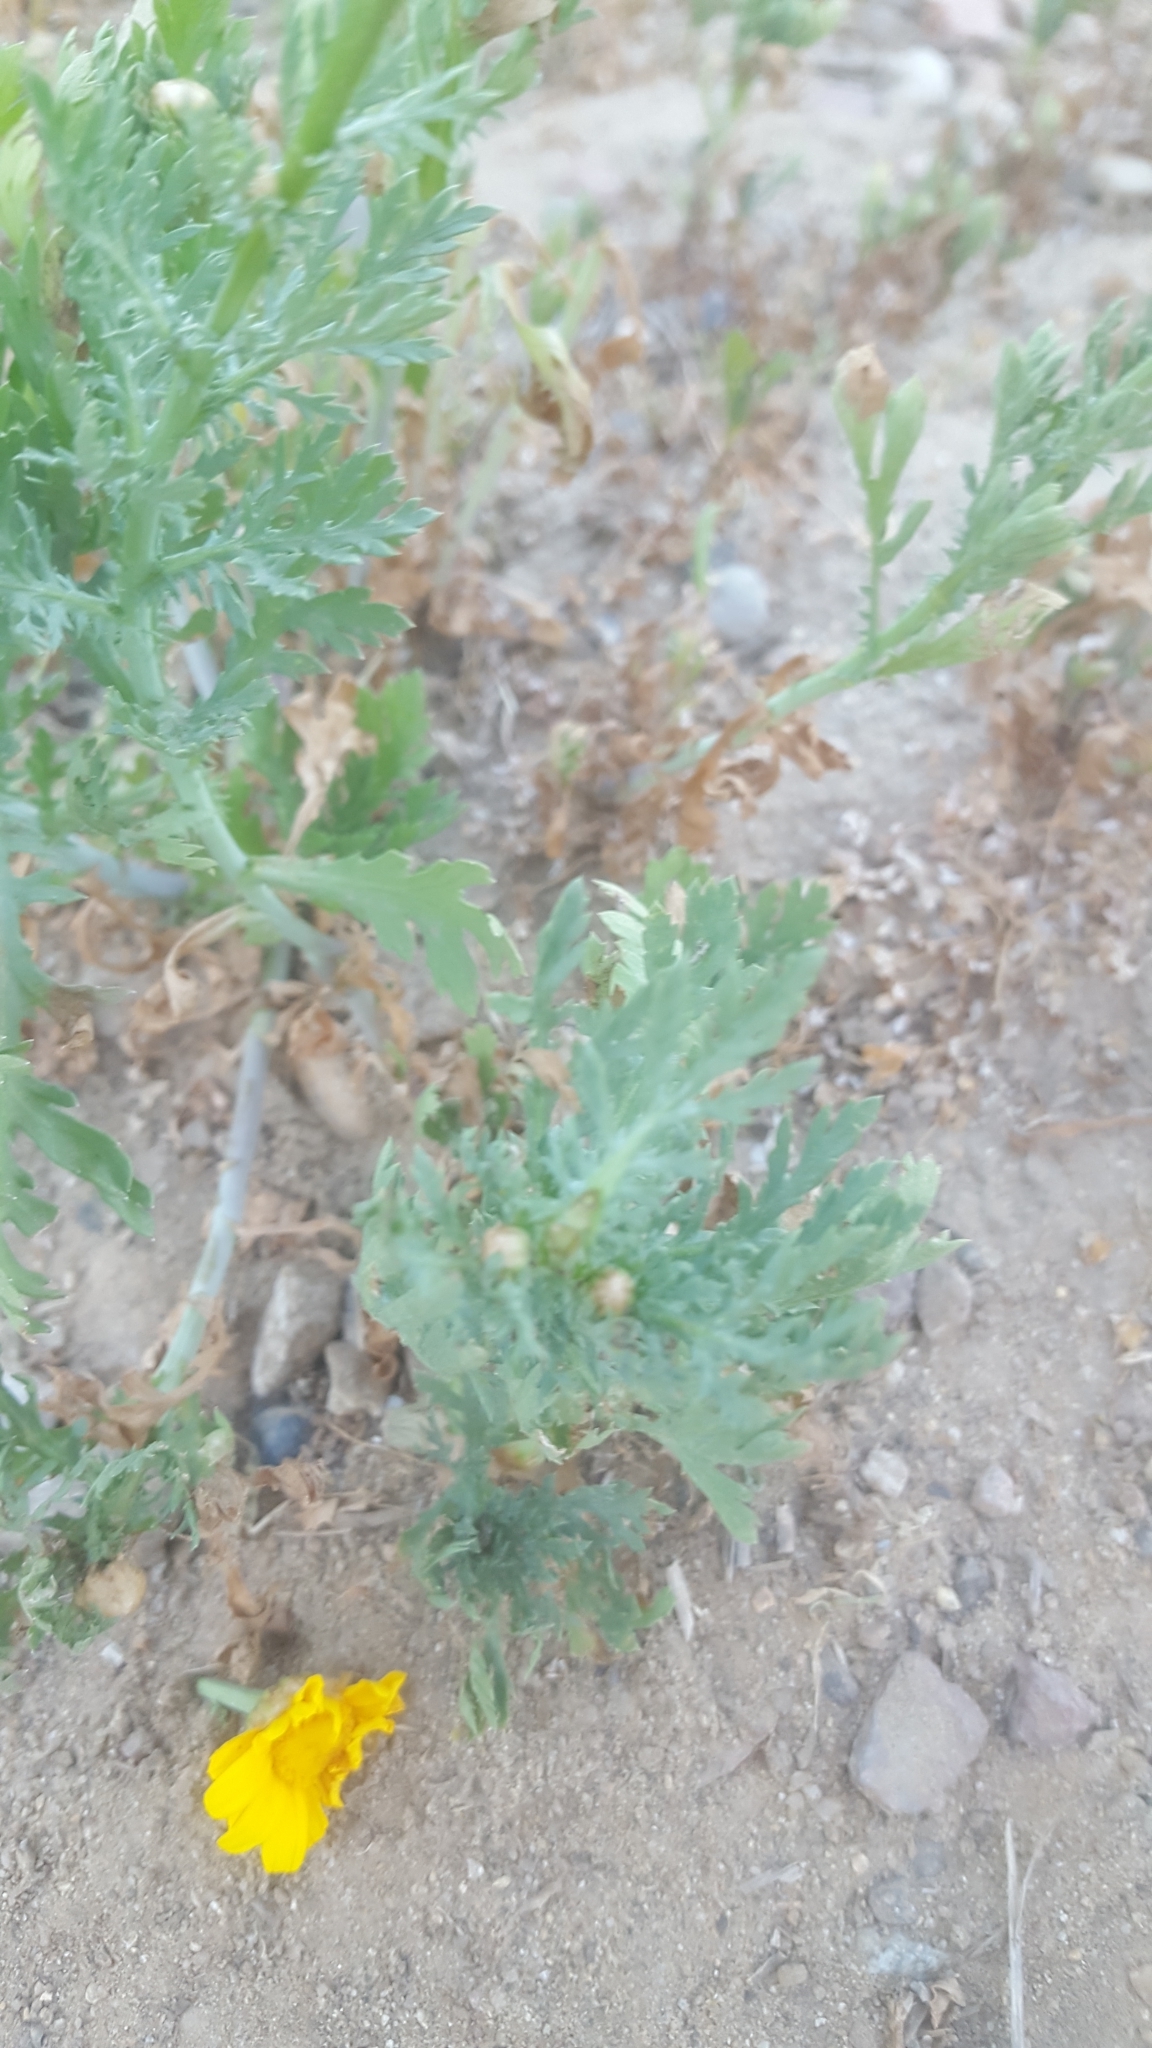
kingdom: Plantae
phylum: Tracheophyta
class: Magnoliopsida
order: Asterales
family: Asteraceae
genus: Glebionis
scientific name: Glebionis coronaria
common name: Crowndaisy
